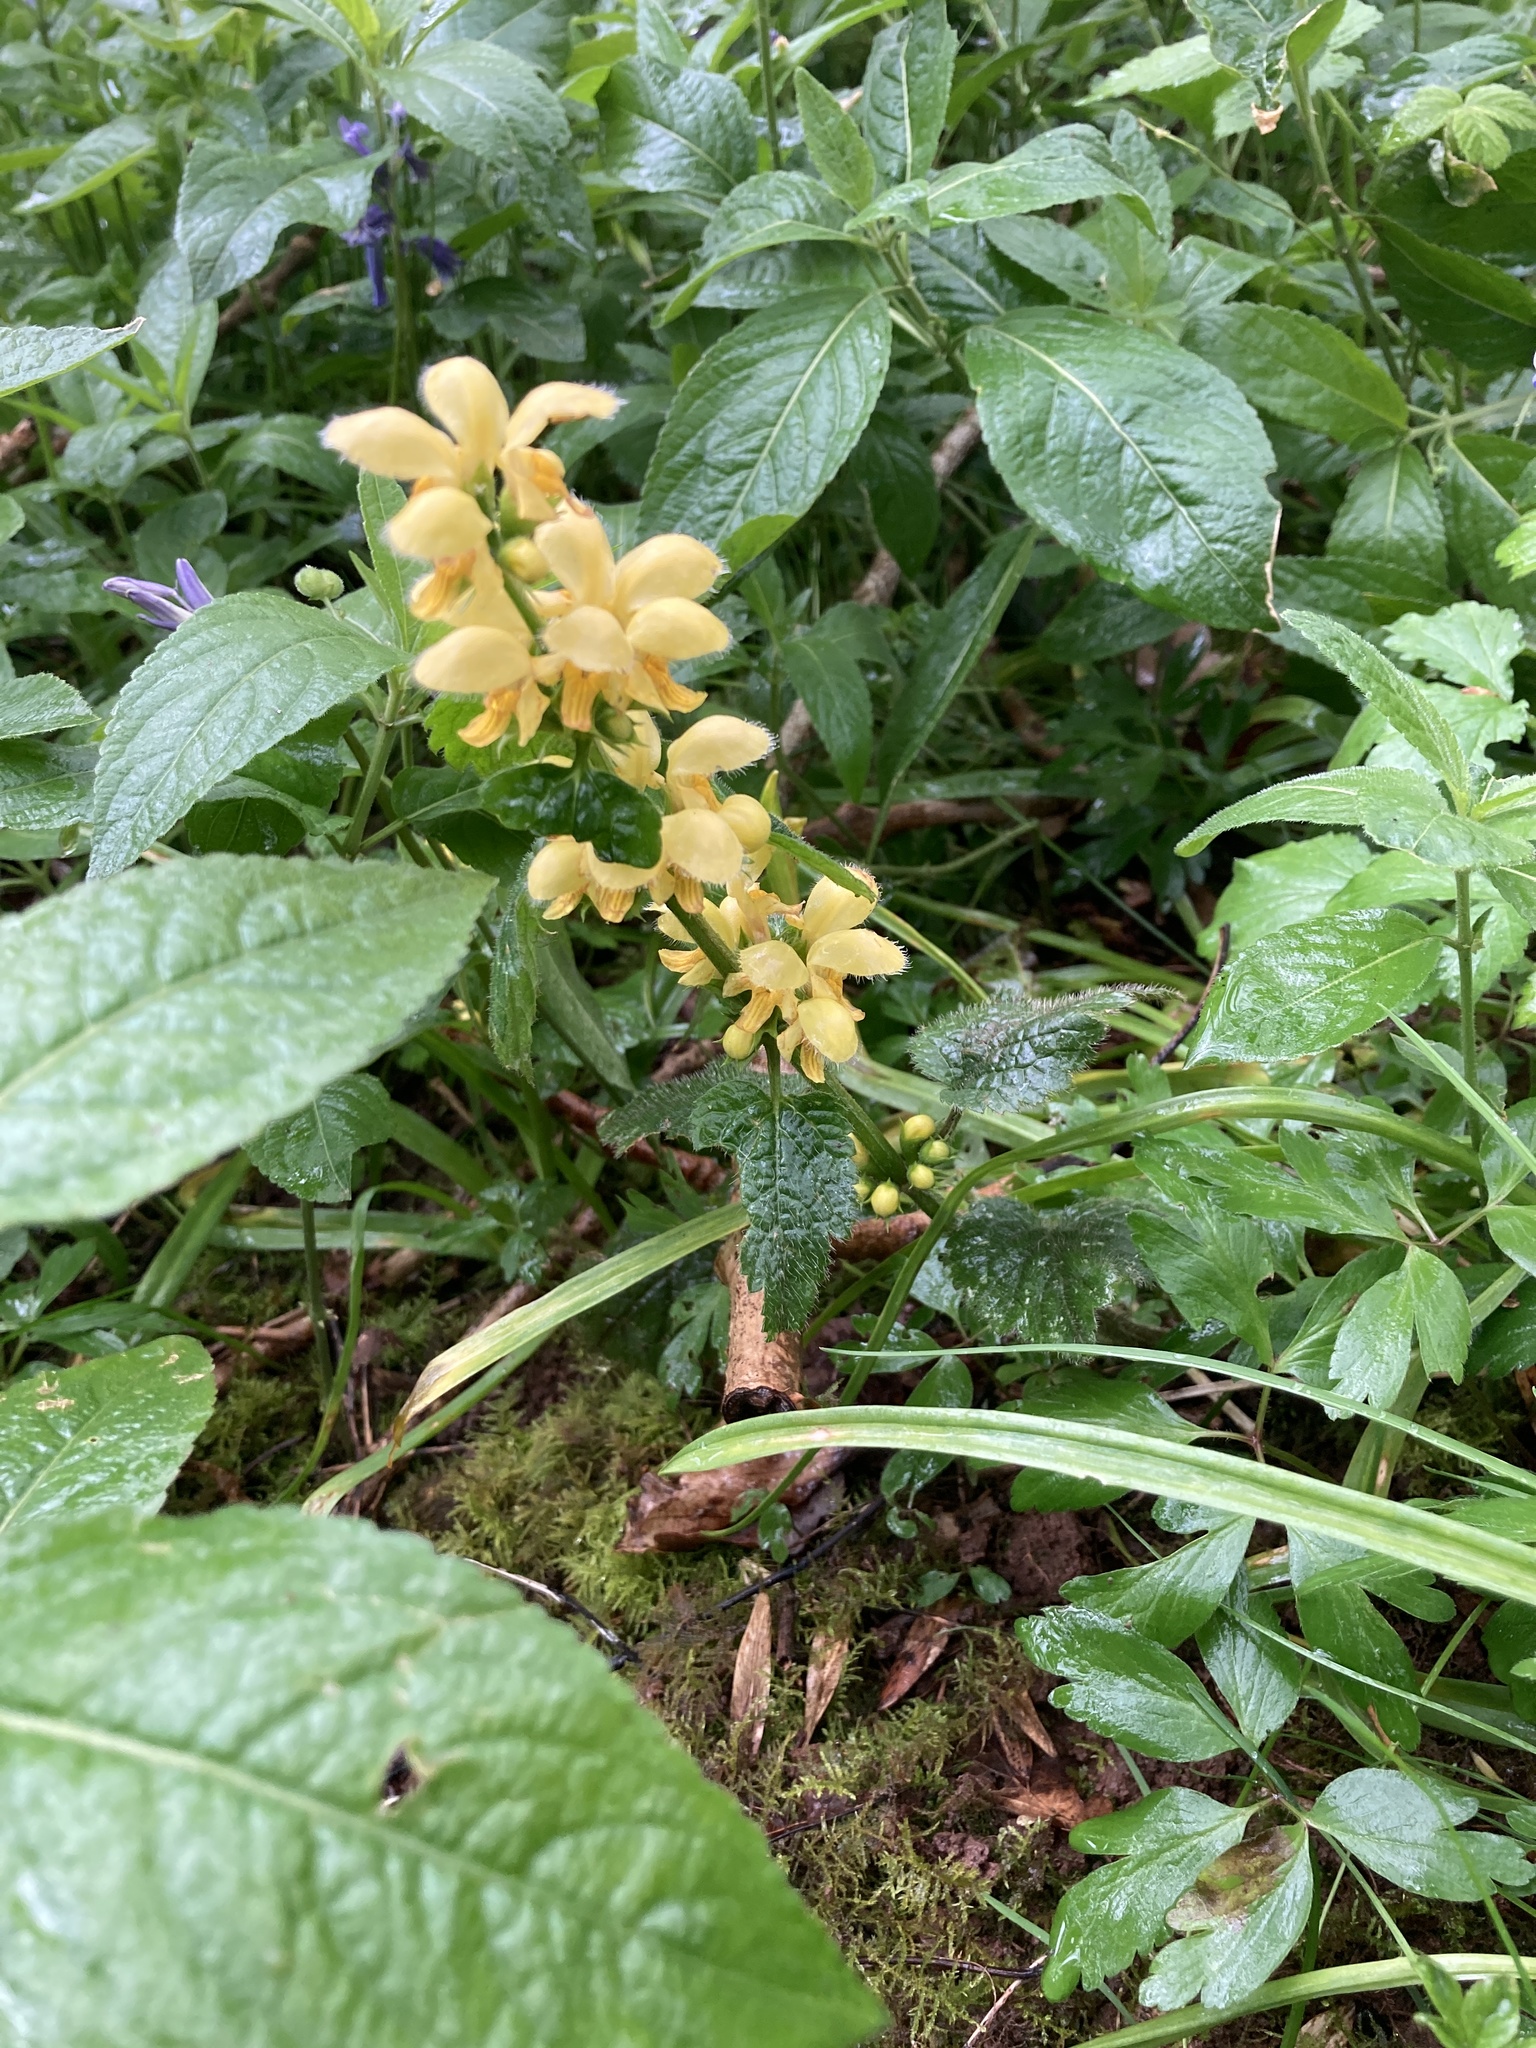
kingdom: Plantae
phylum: Tracheophyta
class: Magnoliopsida
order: Lamiales
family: Lamiaceae
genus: Lamium
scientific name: Lamium galeobdolon
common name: Yellow archangel
